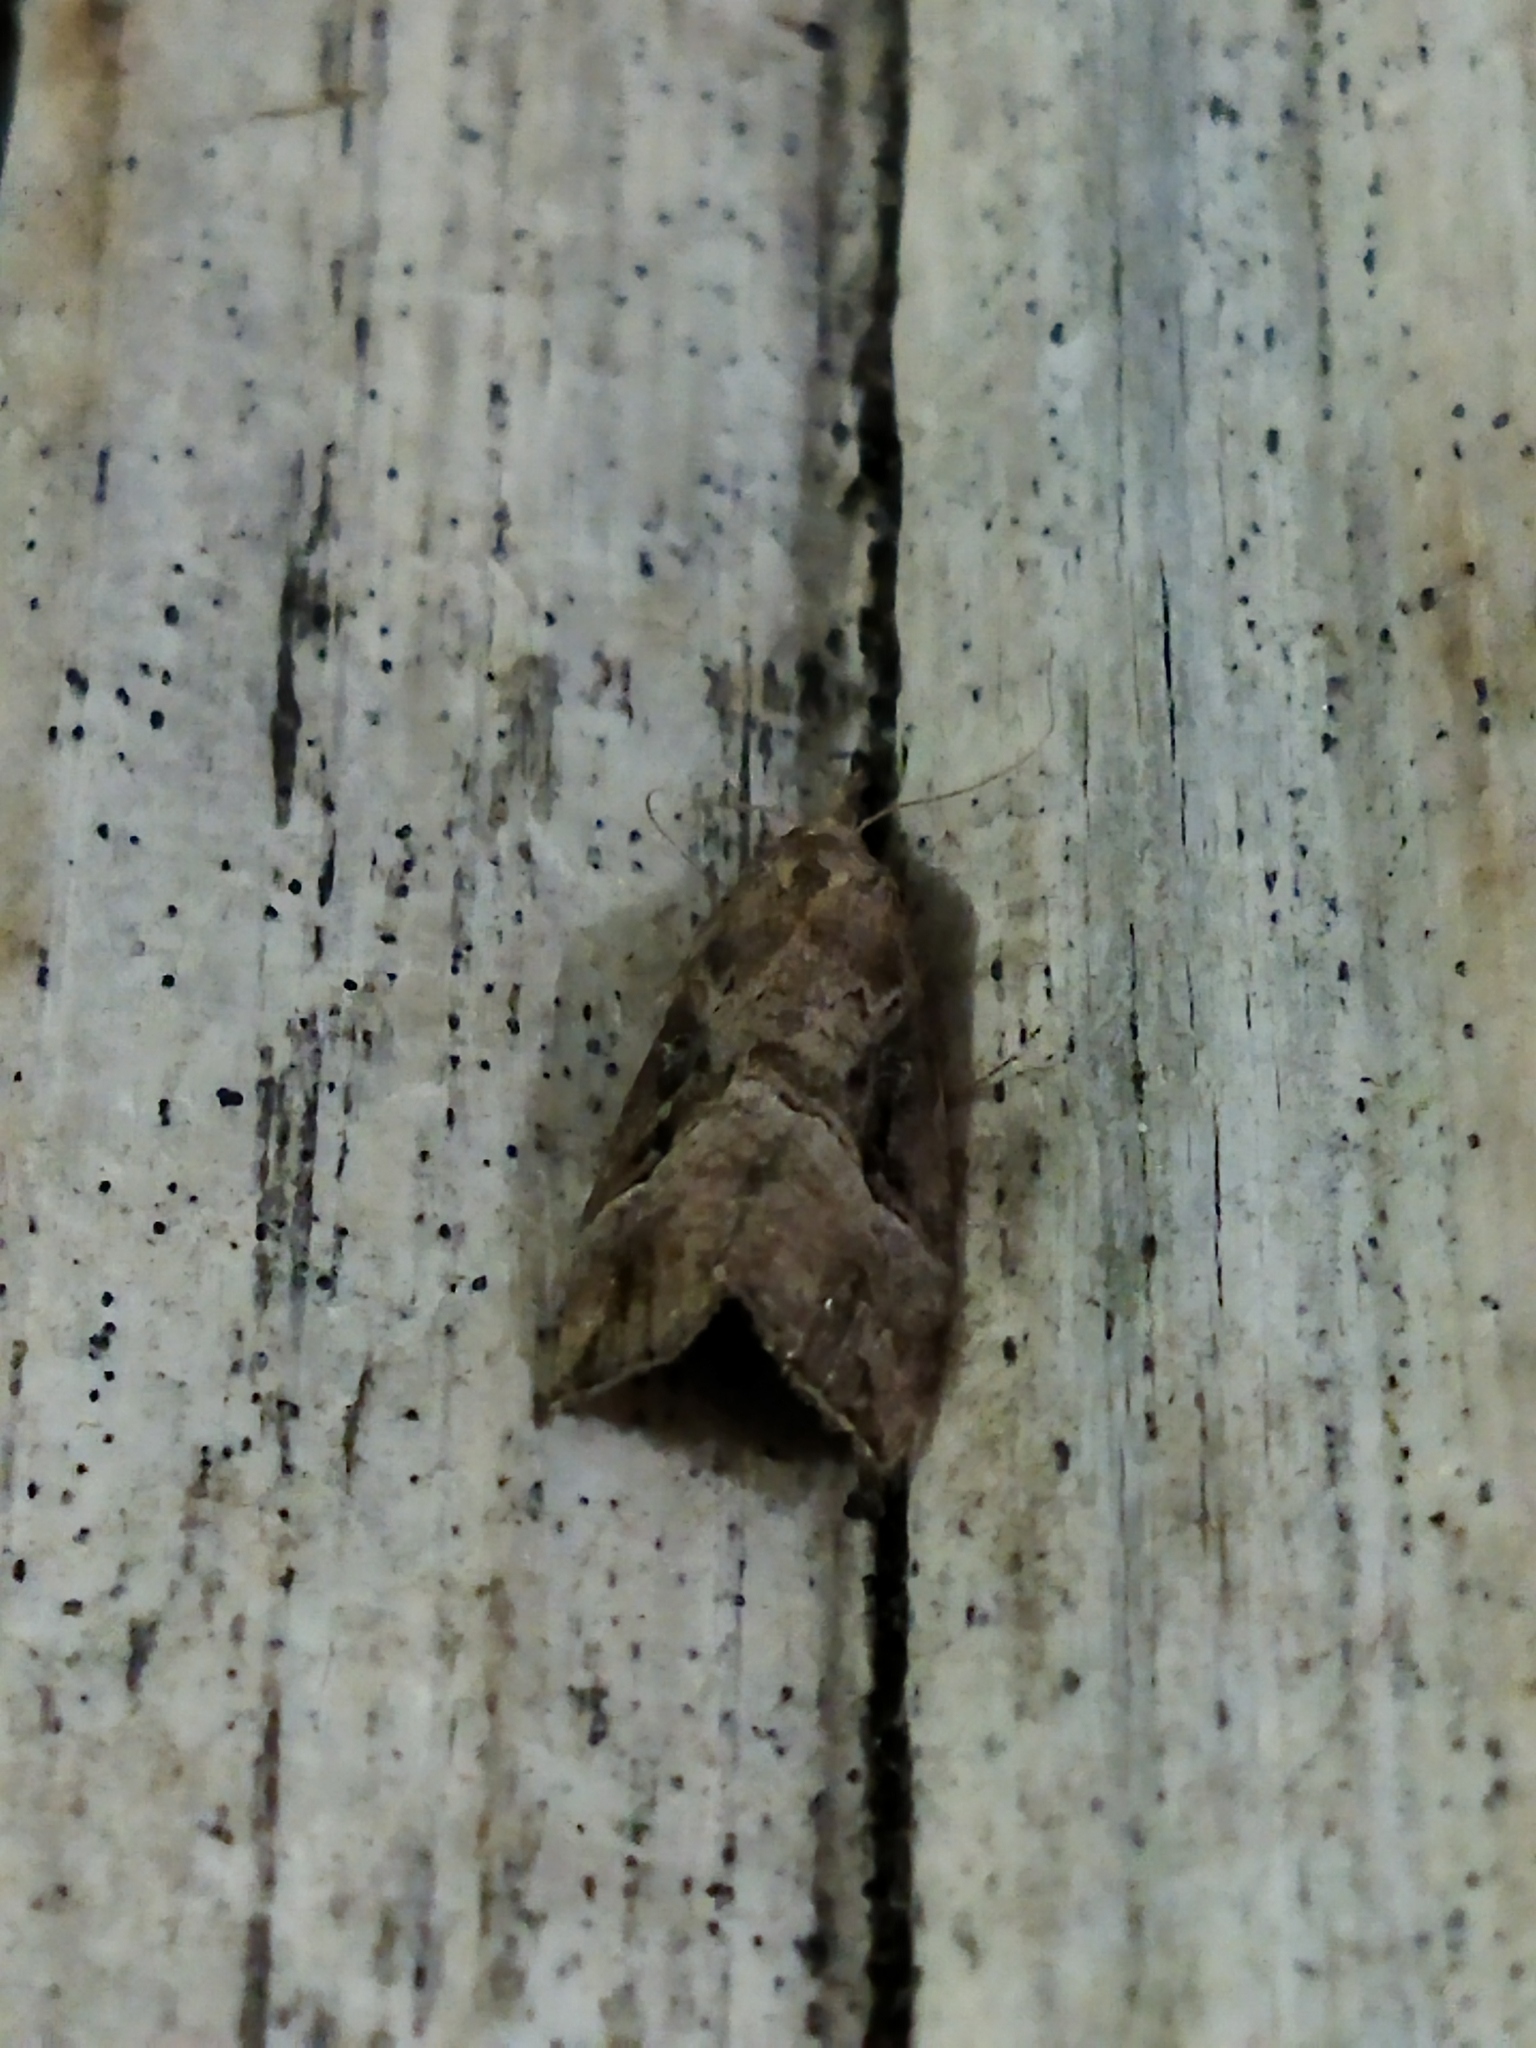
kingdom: Animalia
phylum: Arthropoda
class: Insecta
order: Lepidoptera
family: Erebidae
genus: Hypena
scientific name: Hypena rostralis
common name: Buttoned snout
